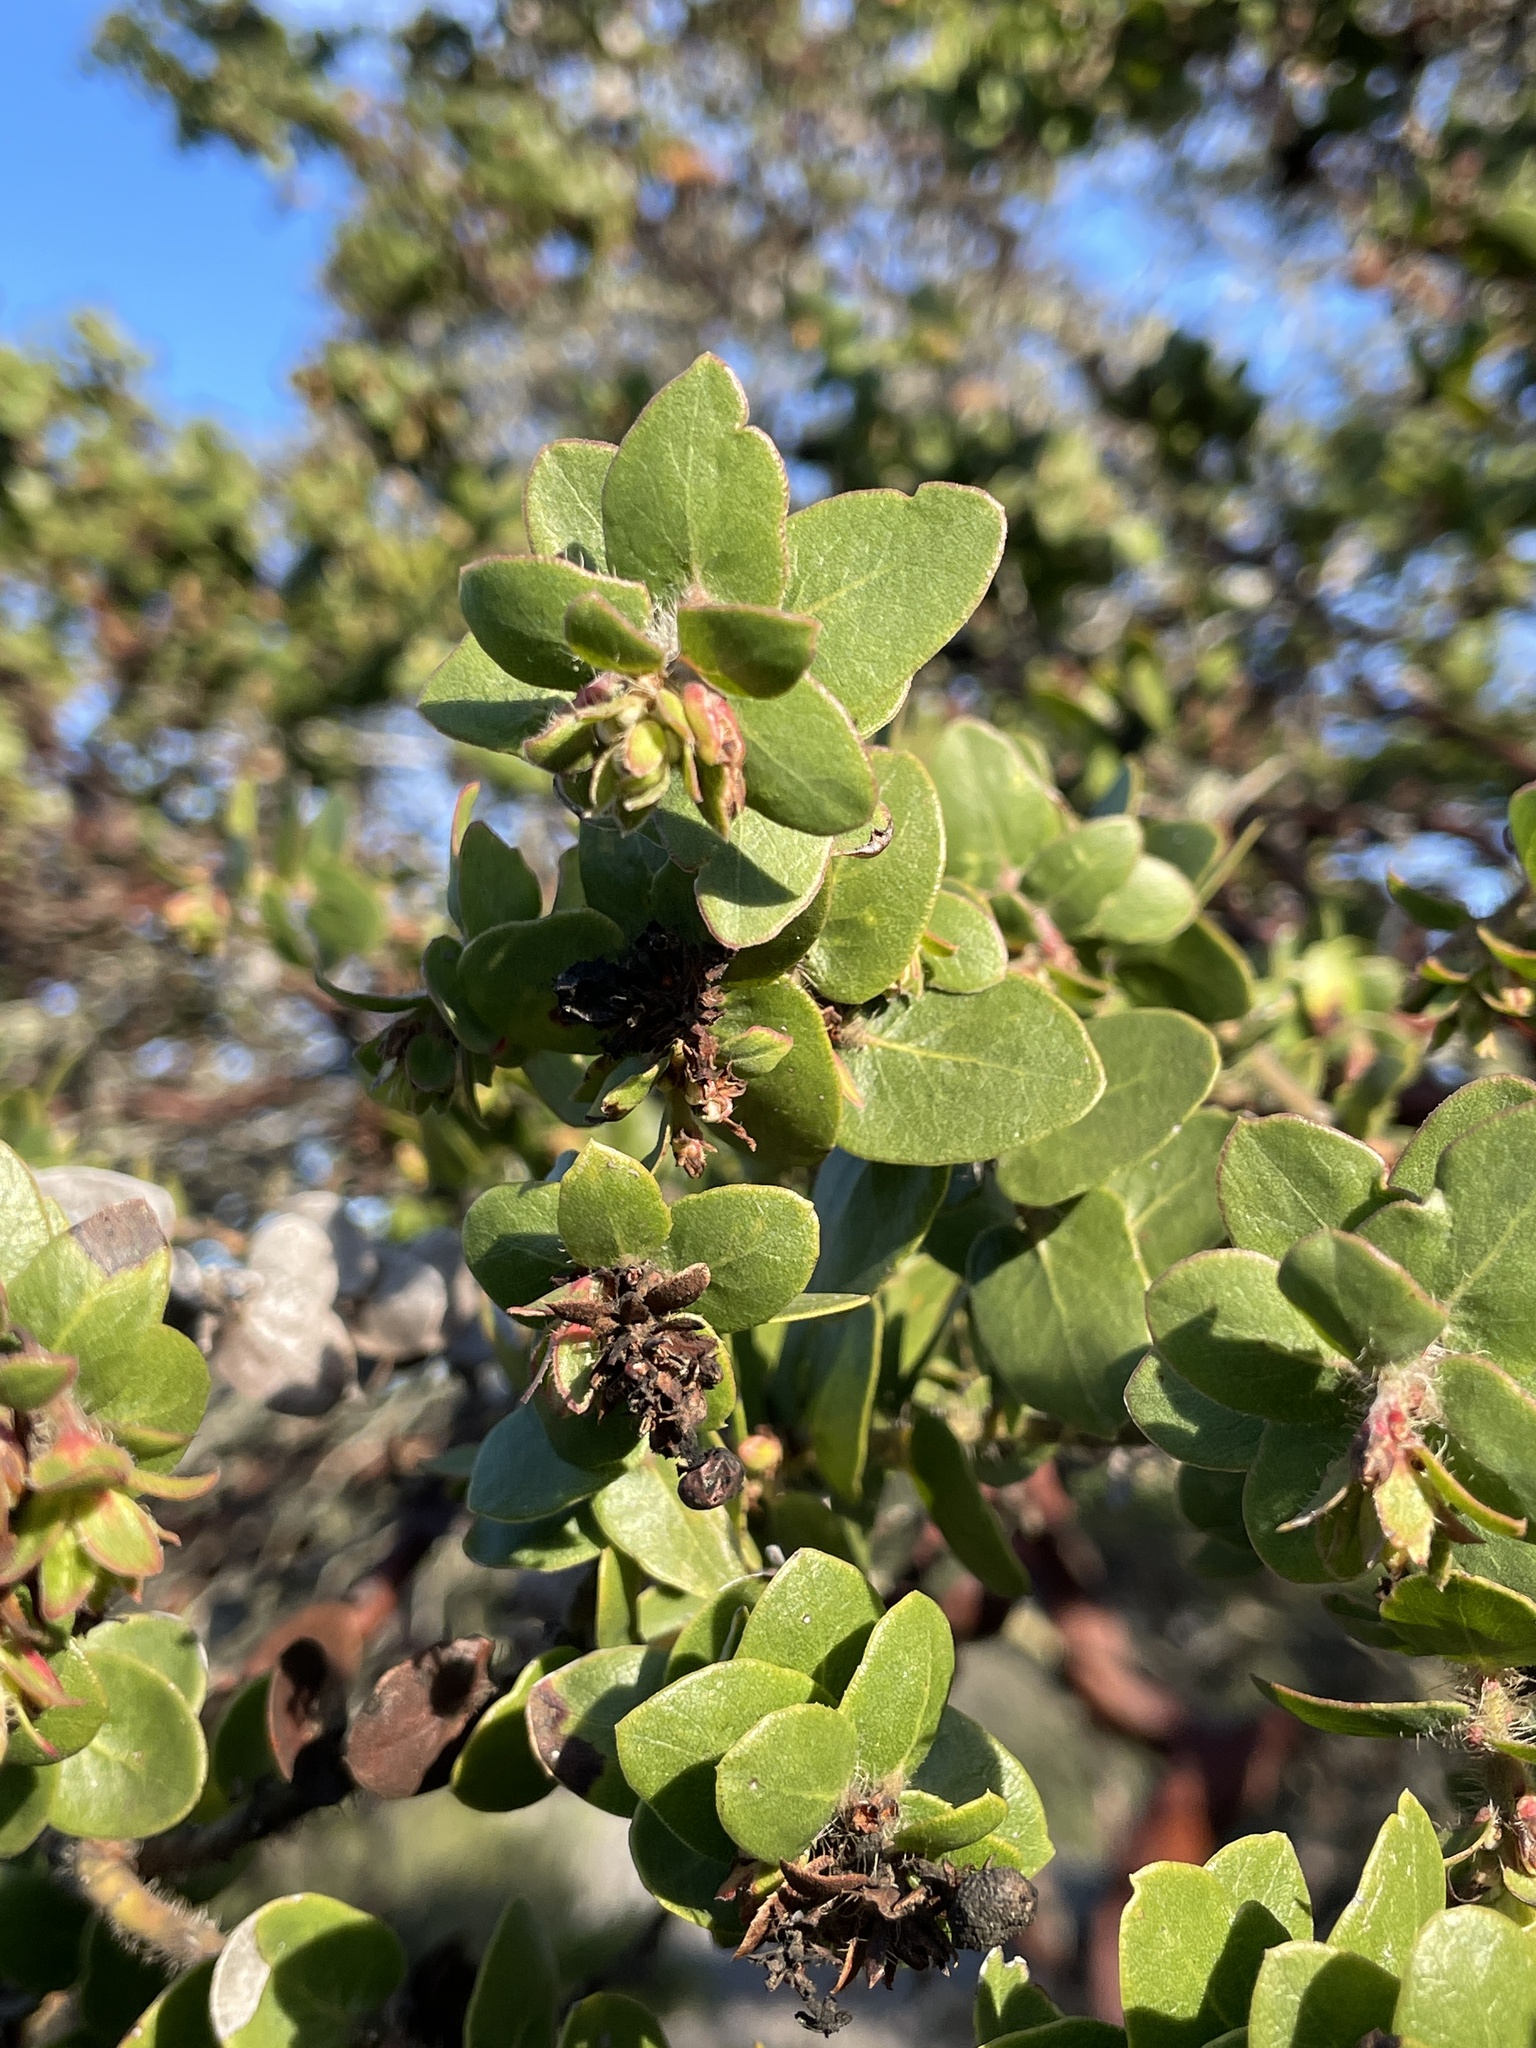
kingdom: Plantae
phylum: Tracheophyta
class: Magnoliopsida
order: Ericales
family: Ericaceae
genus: Arctostaphylos
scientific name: Arctostaphylos purissima
